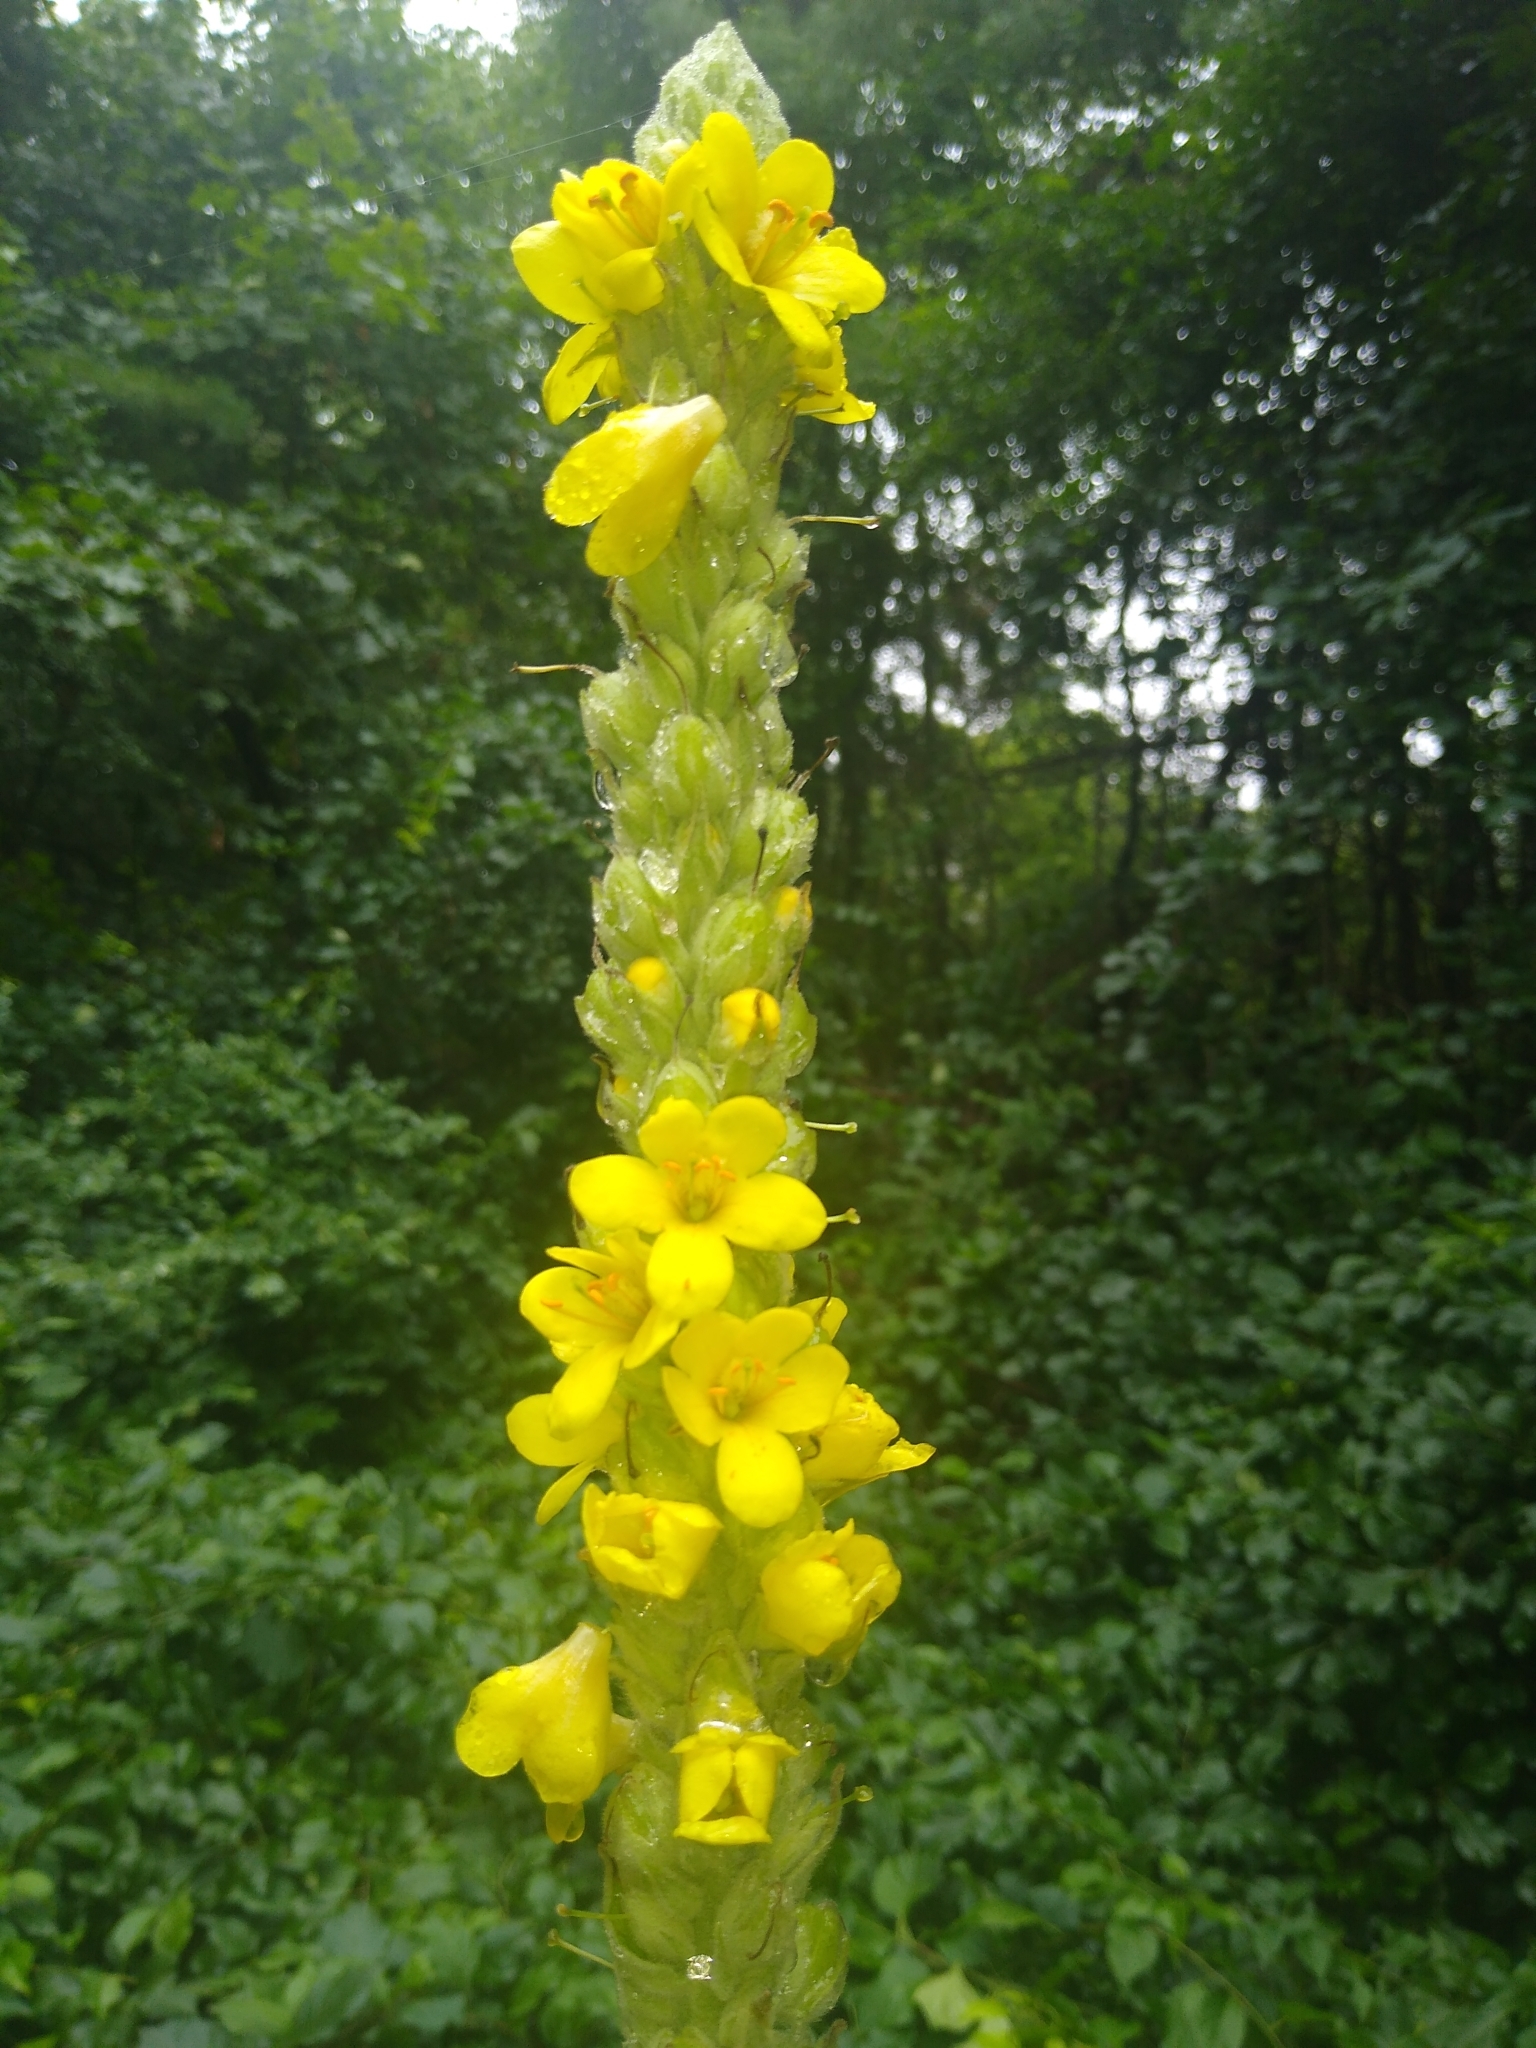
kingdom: Plantae
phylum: Tracheophyta
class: Magnoliopsida
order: Lamiales
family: Scrophulariaceae
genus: Verbascum
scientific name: Verbascum thapsus
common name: Common mullein
